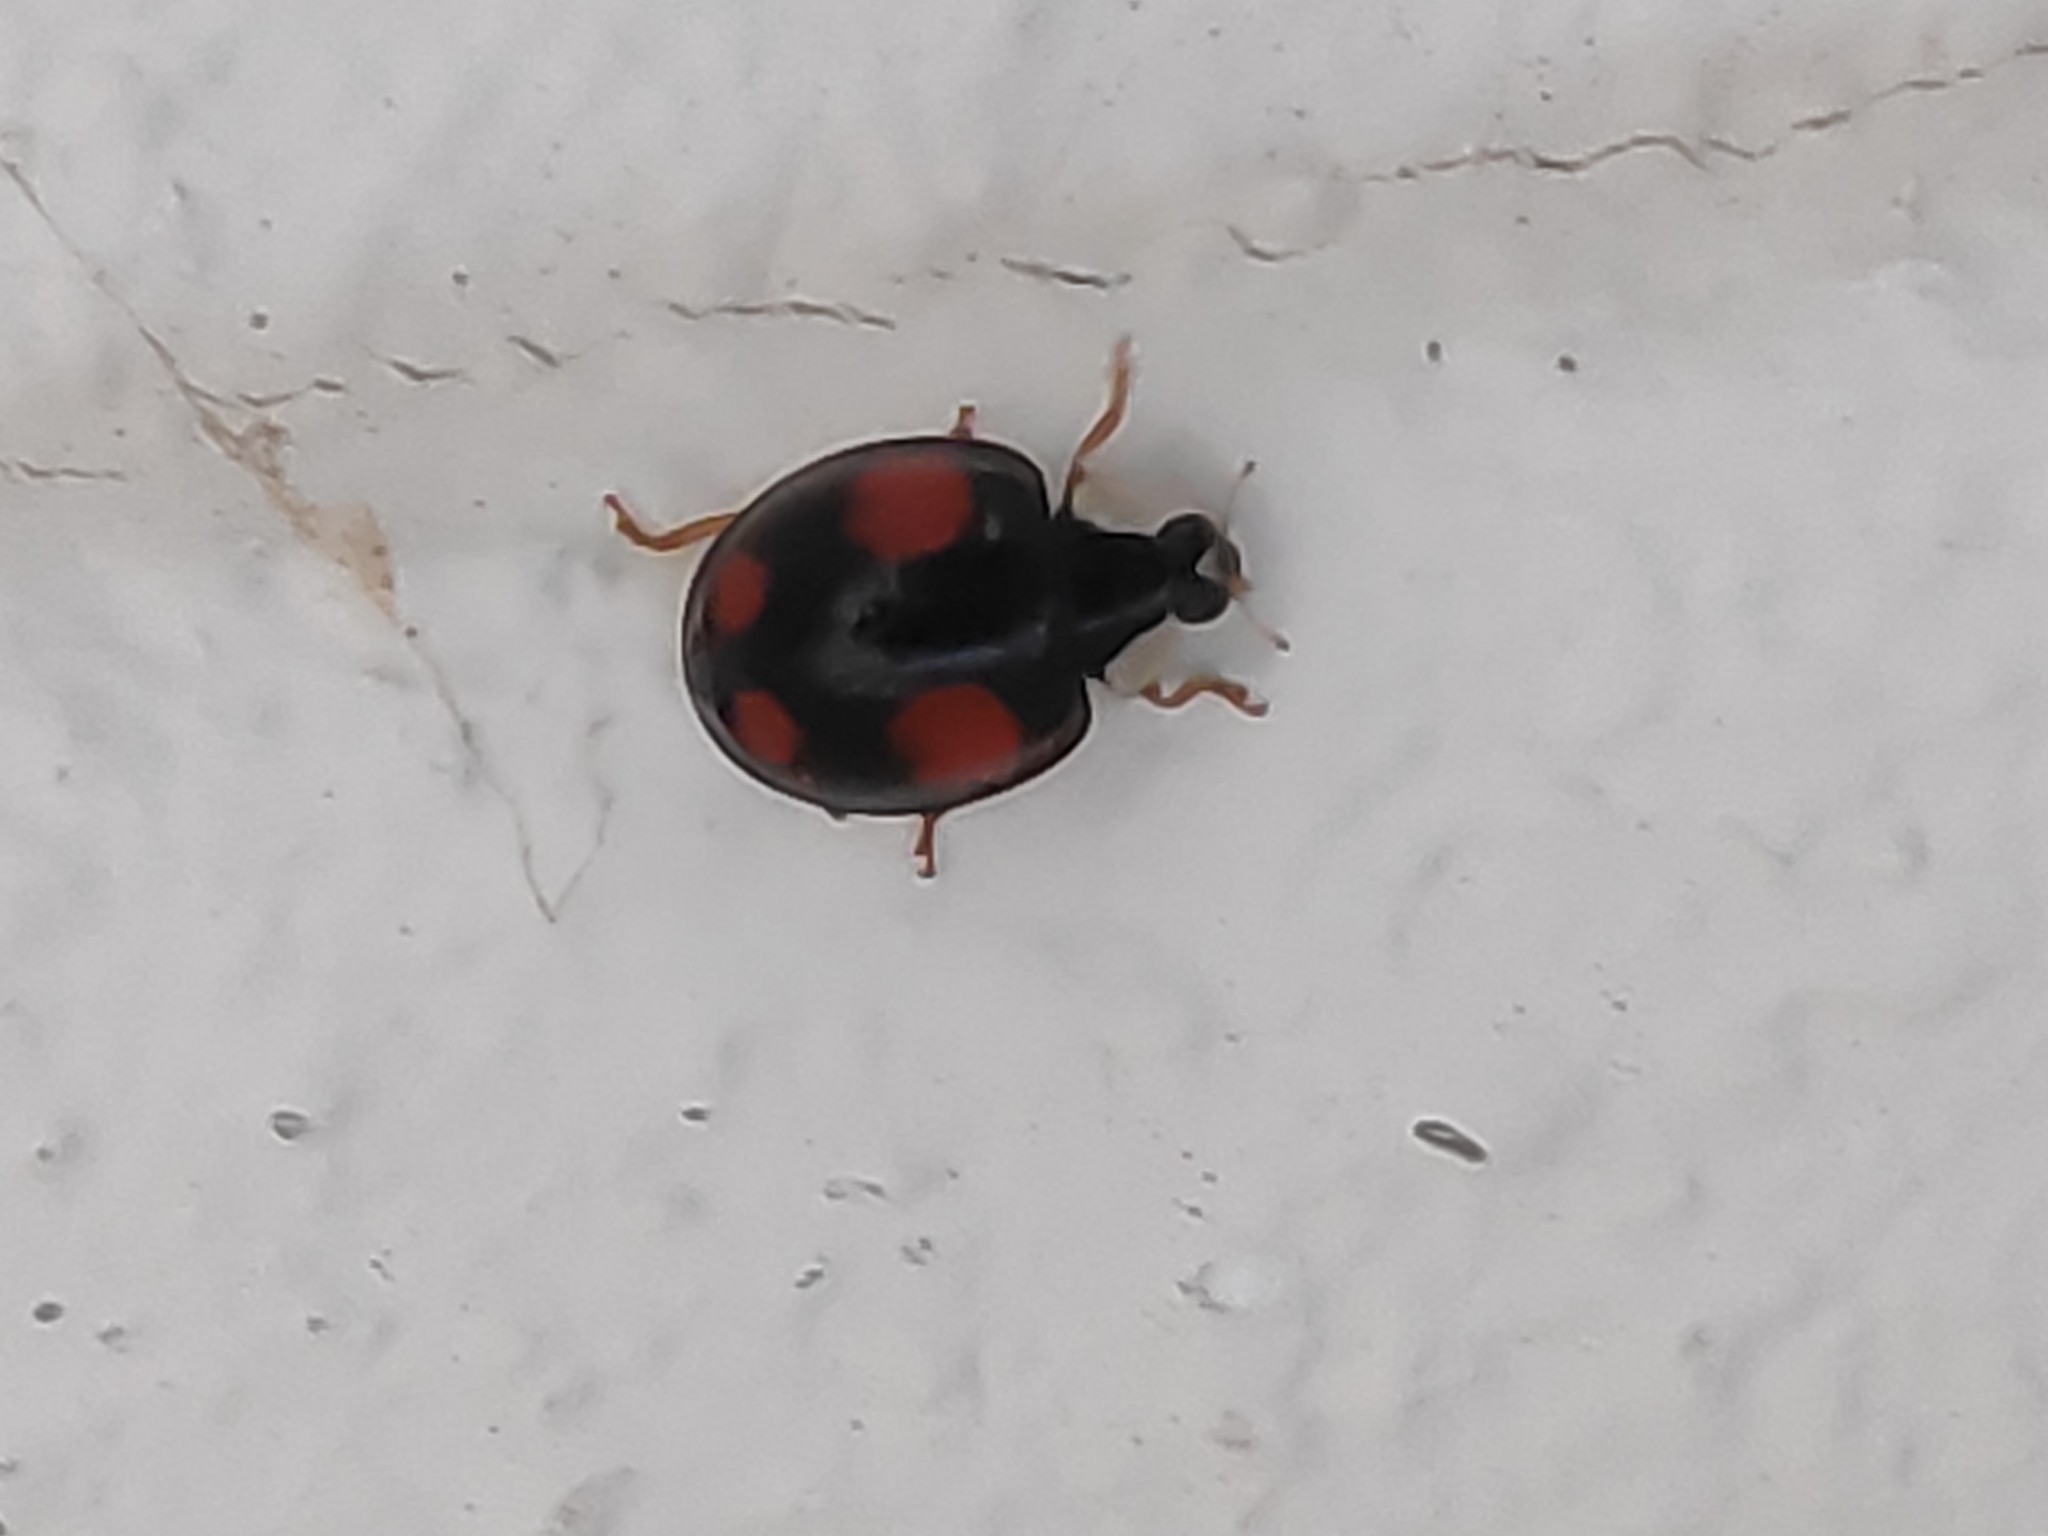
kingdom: Animalia
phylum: Arthropoda
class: Insecta
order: Coleoptera
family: Coccinellidae
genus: Harmonia
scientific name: Harmonia axyridis
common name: Harlequin ladybird
